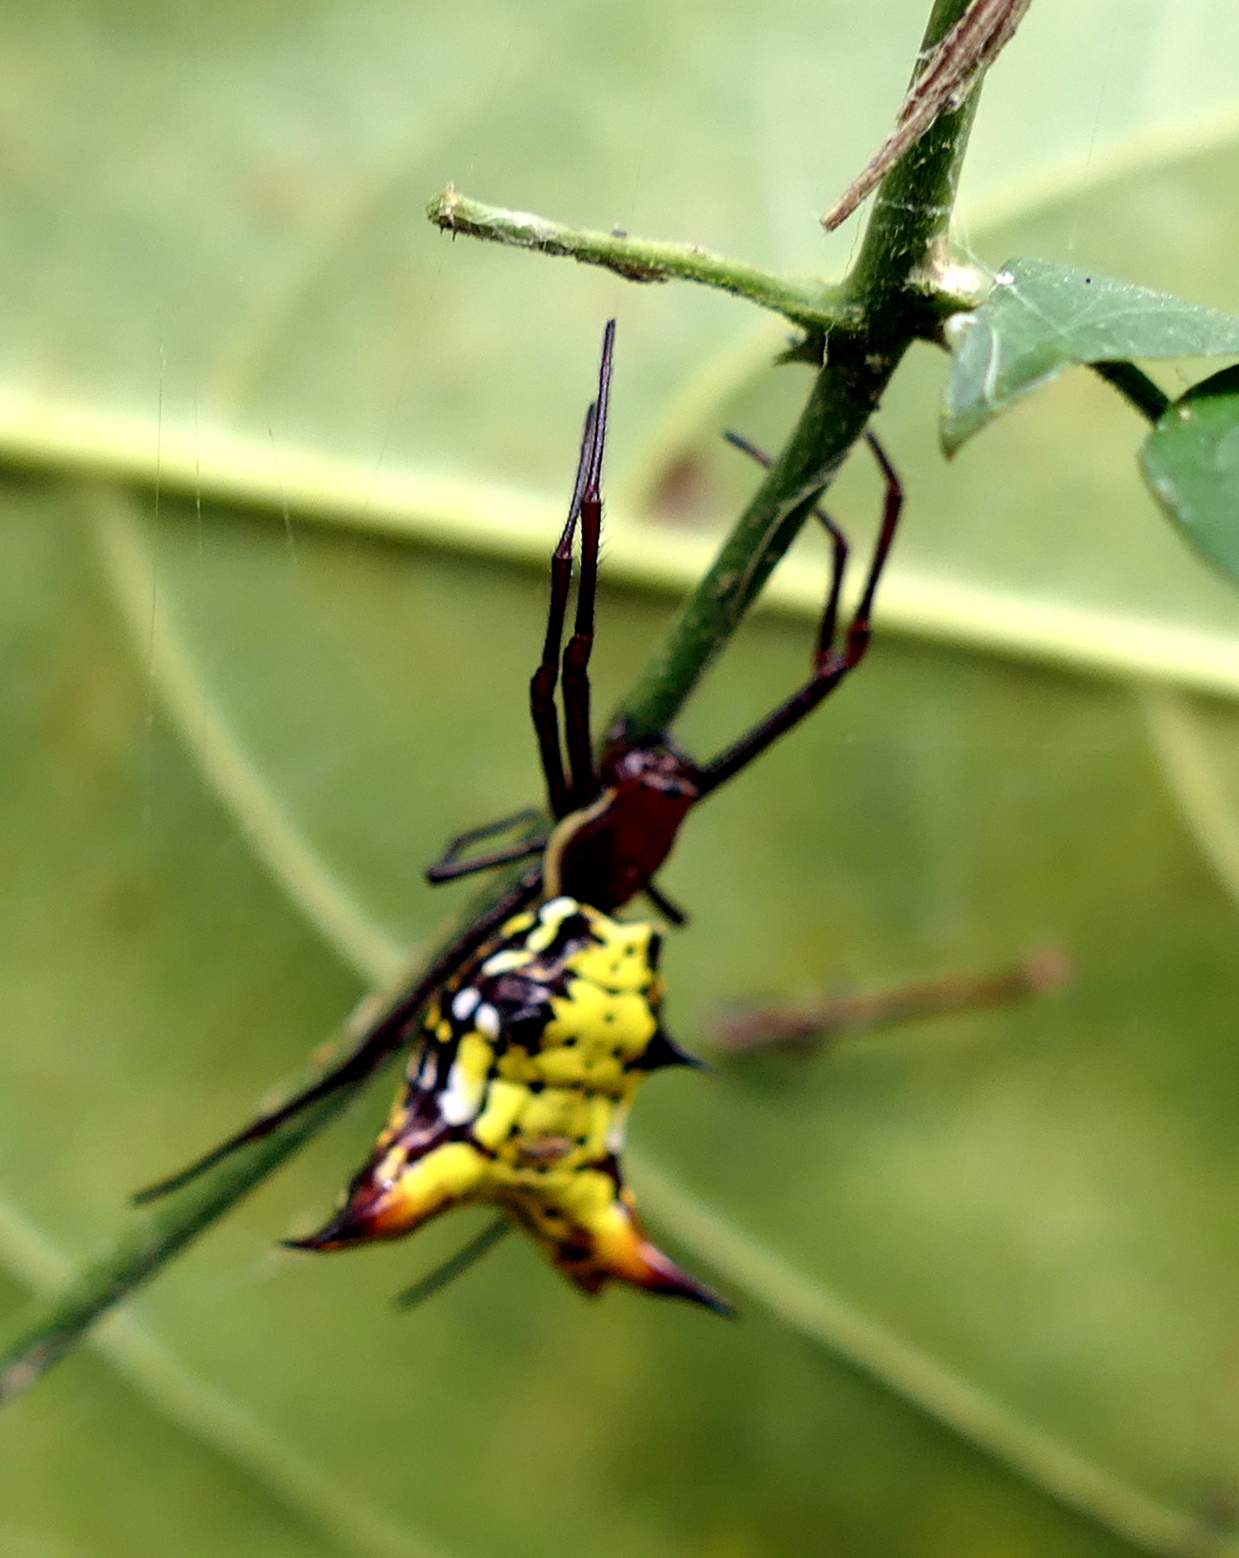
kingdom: Animalia
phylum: Arthropoda
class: Arachnida
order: Araneae
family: Araneidae
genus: Micrathena
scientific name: Micrathena fissispina
